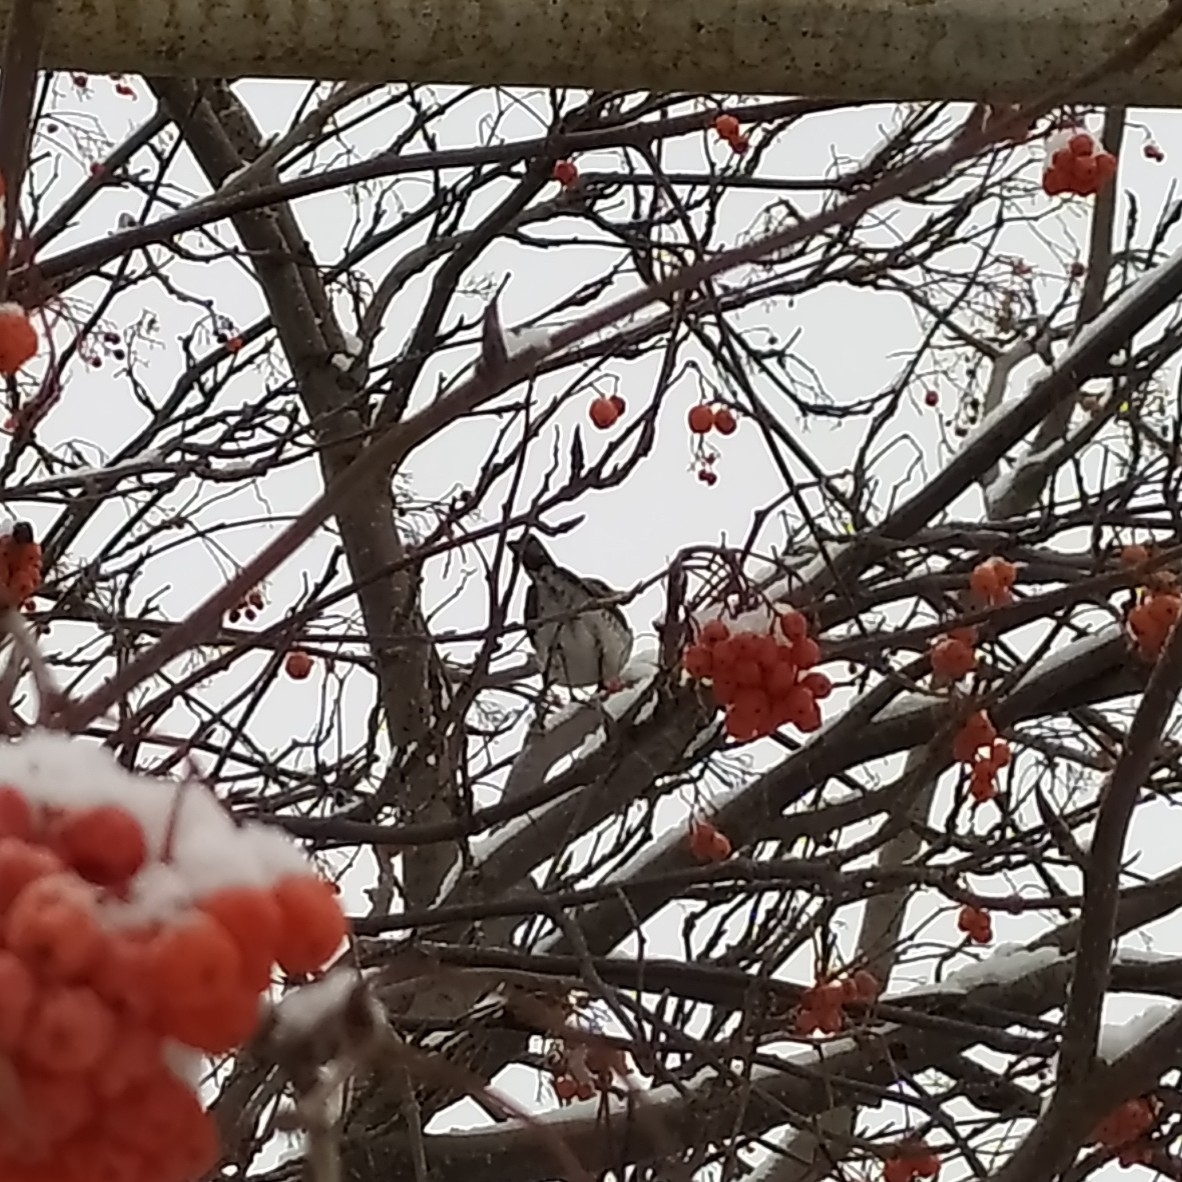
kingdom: Animalia
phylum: Chordata
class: Aves
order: Passeriformes
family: Turdidae
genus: Turdus
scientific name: Turdus pilaris
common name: Fieldfare
